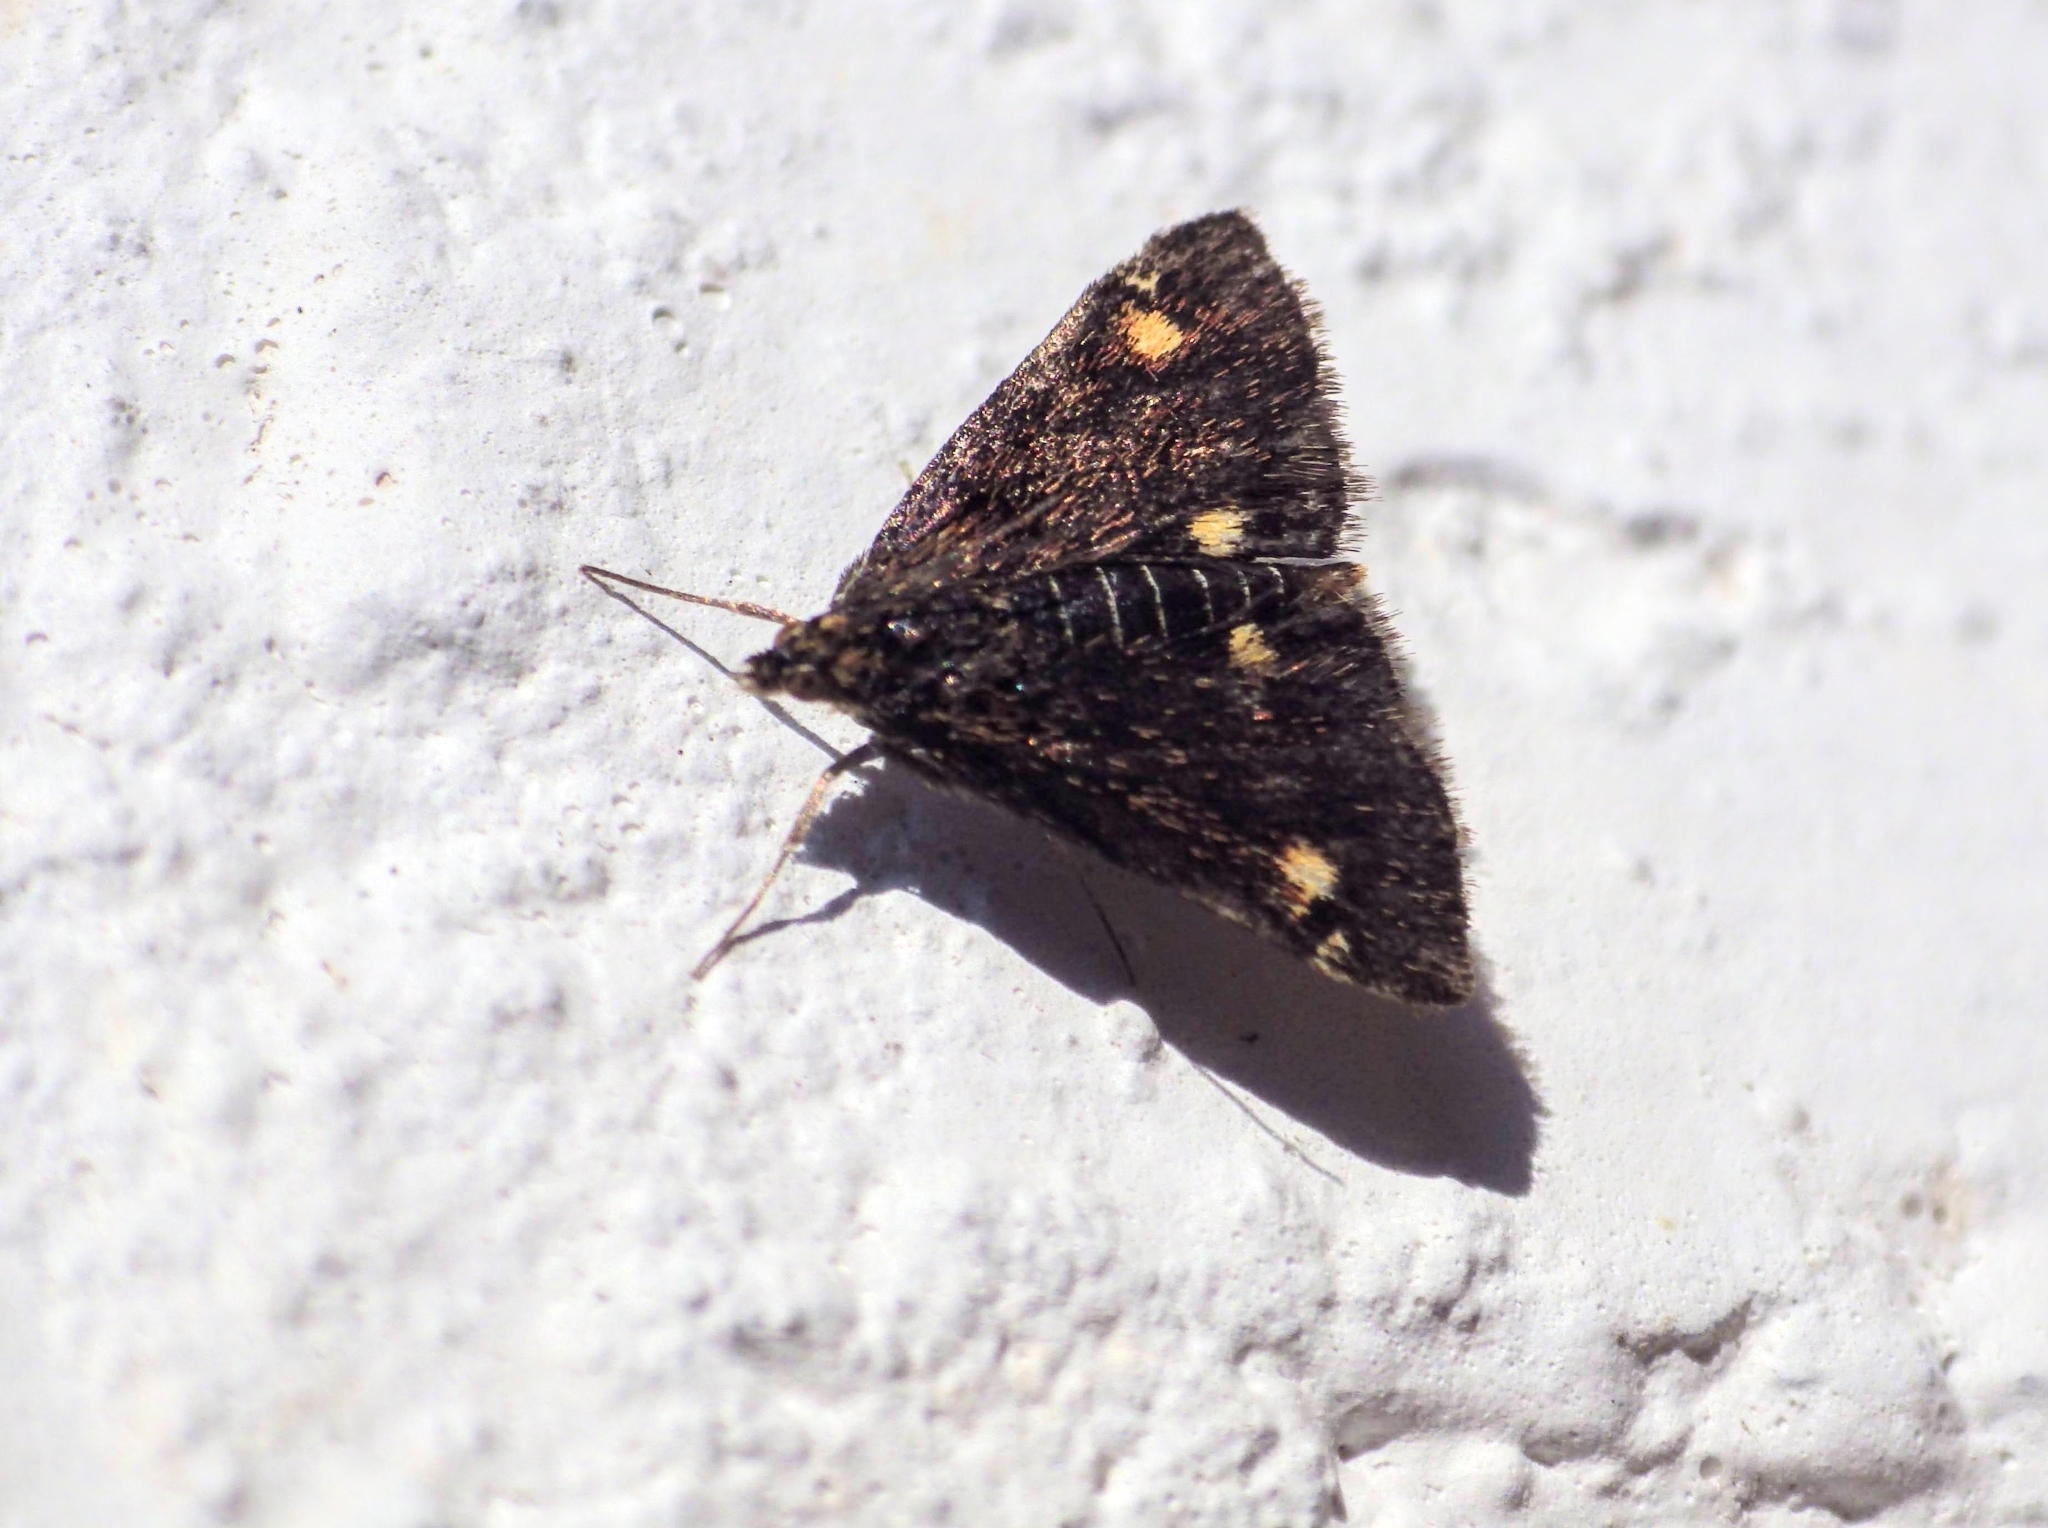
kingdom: Animalia
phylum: Arthropoda
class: Insecta
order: Lepidoptera
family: Crambidae
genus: Pyrausta
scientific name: Pyrausta aurata
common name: Small purple & gold
